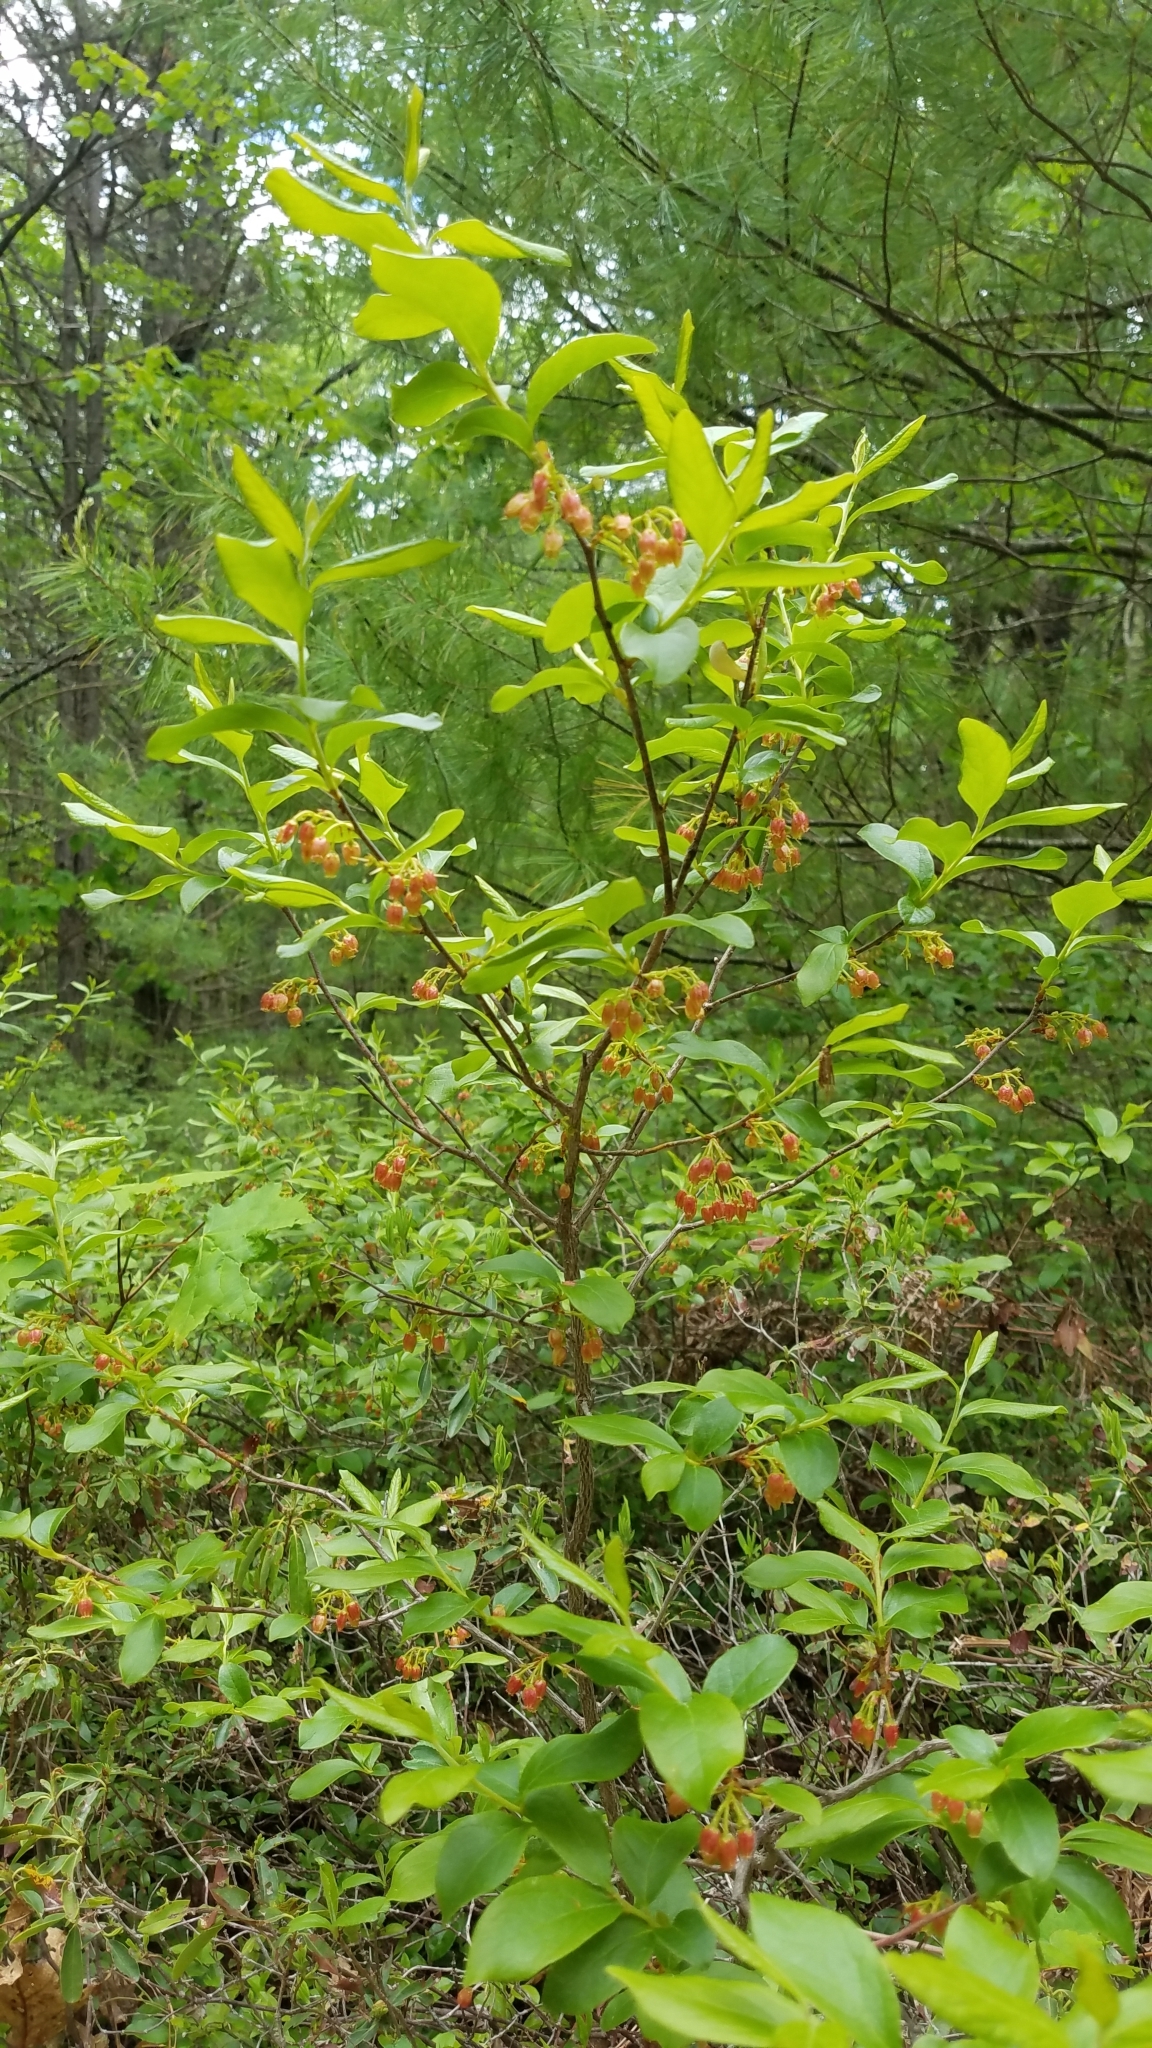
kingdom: Plantae
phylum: Tracheophyta
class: Magnoliopsida
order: Ericales
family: Ericaceae
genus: Gaylussacia
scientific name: Gaylussacia baccata
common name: Black huckleberry
